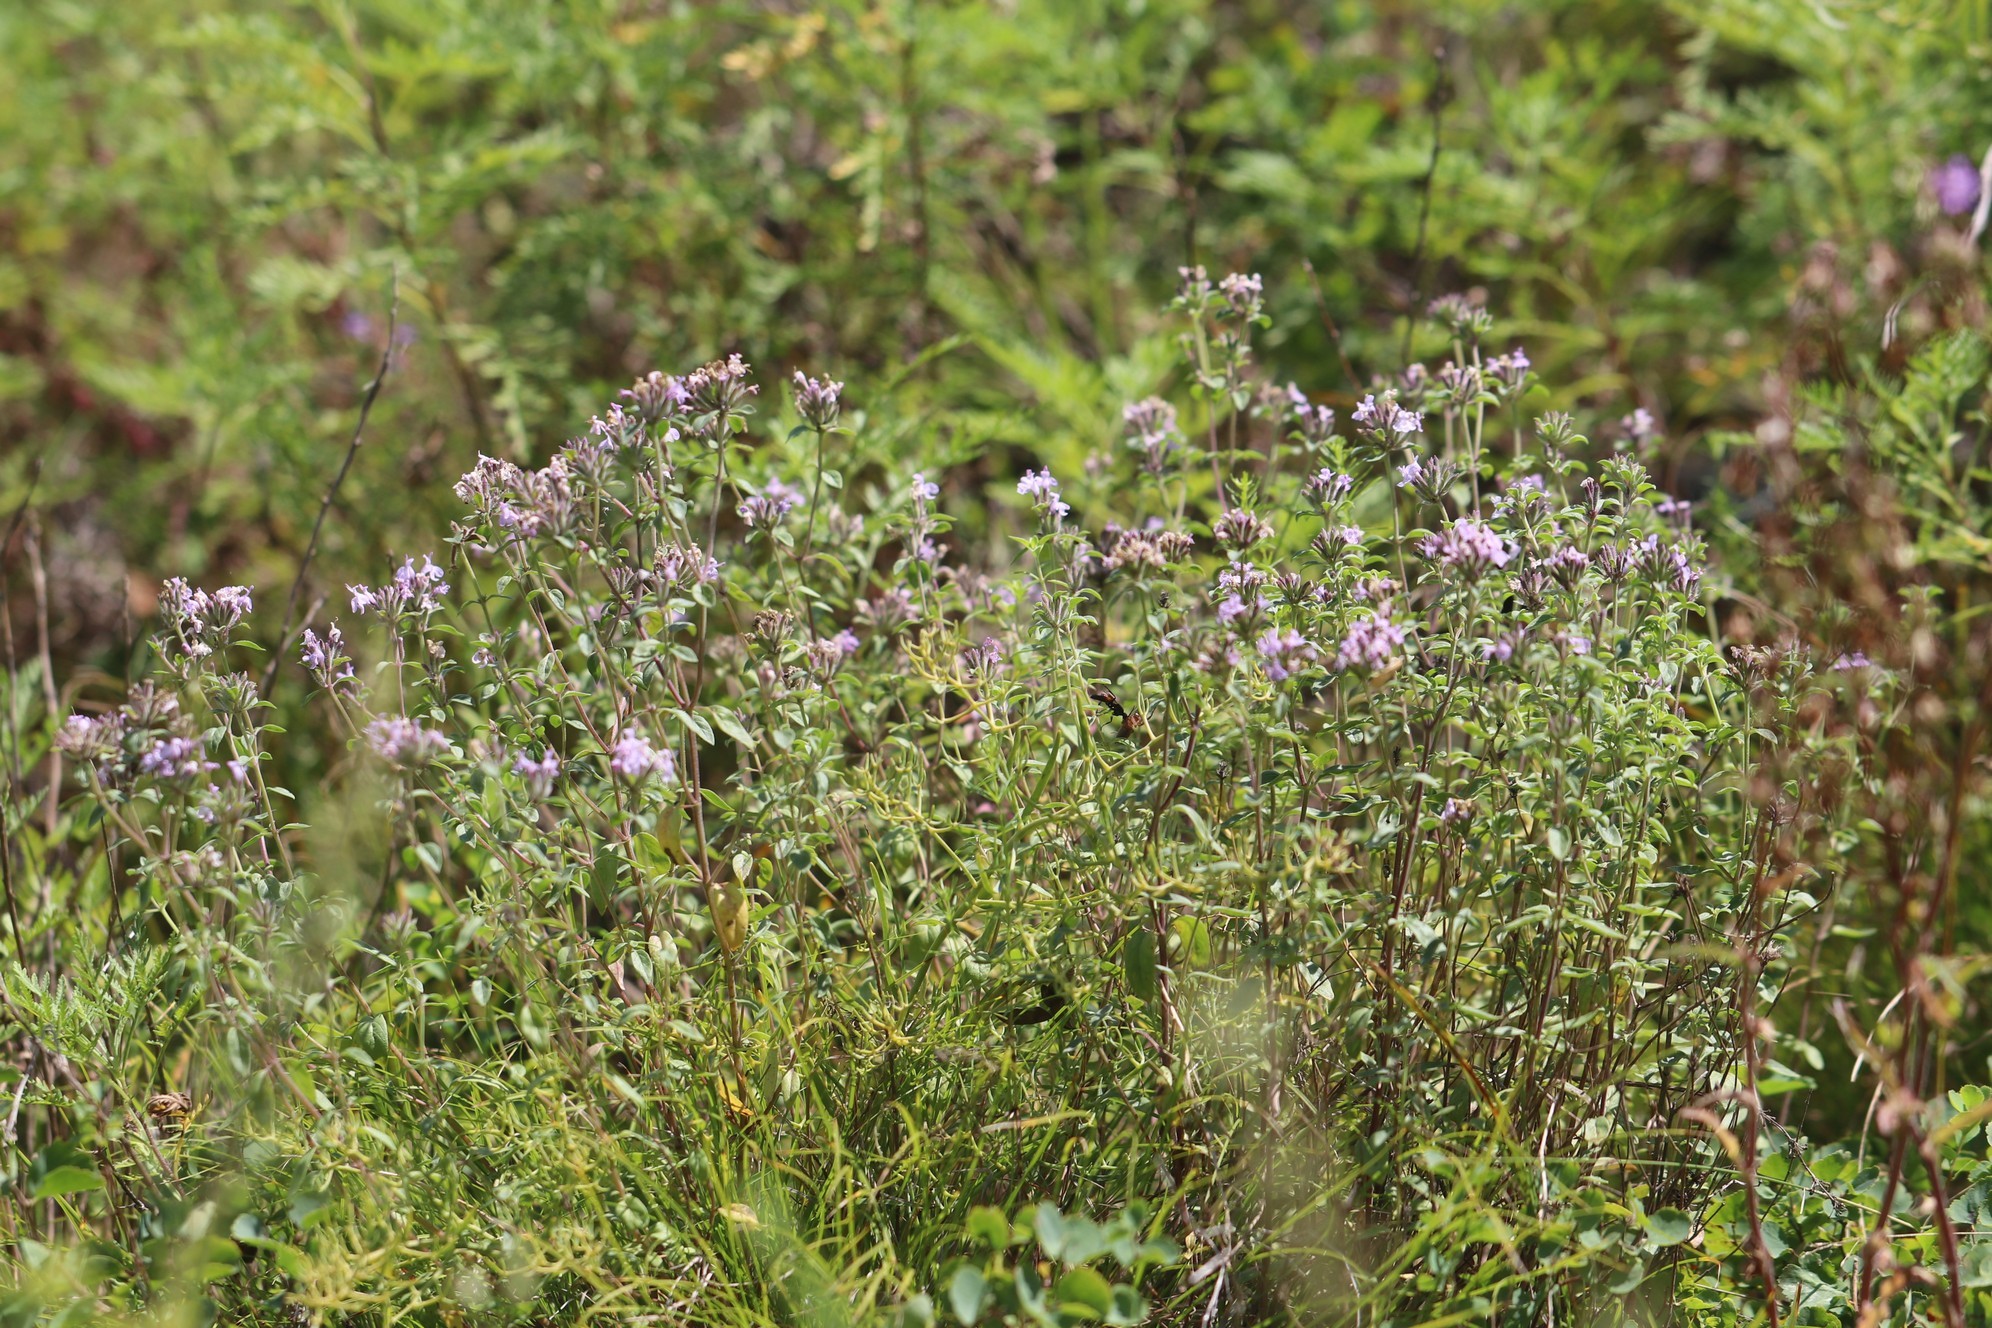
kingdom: Plantae
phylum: Tracheophyta
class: Magnoliopsida
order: Lamiales
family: Lamiaceae
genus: Ziziphora
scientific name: Ziziphora clinopodioides
